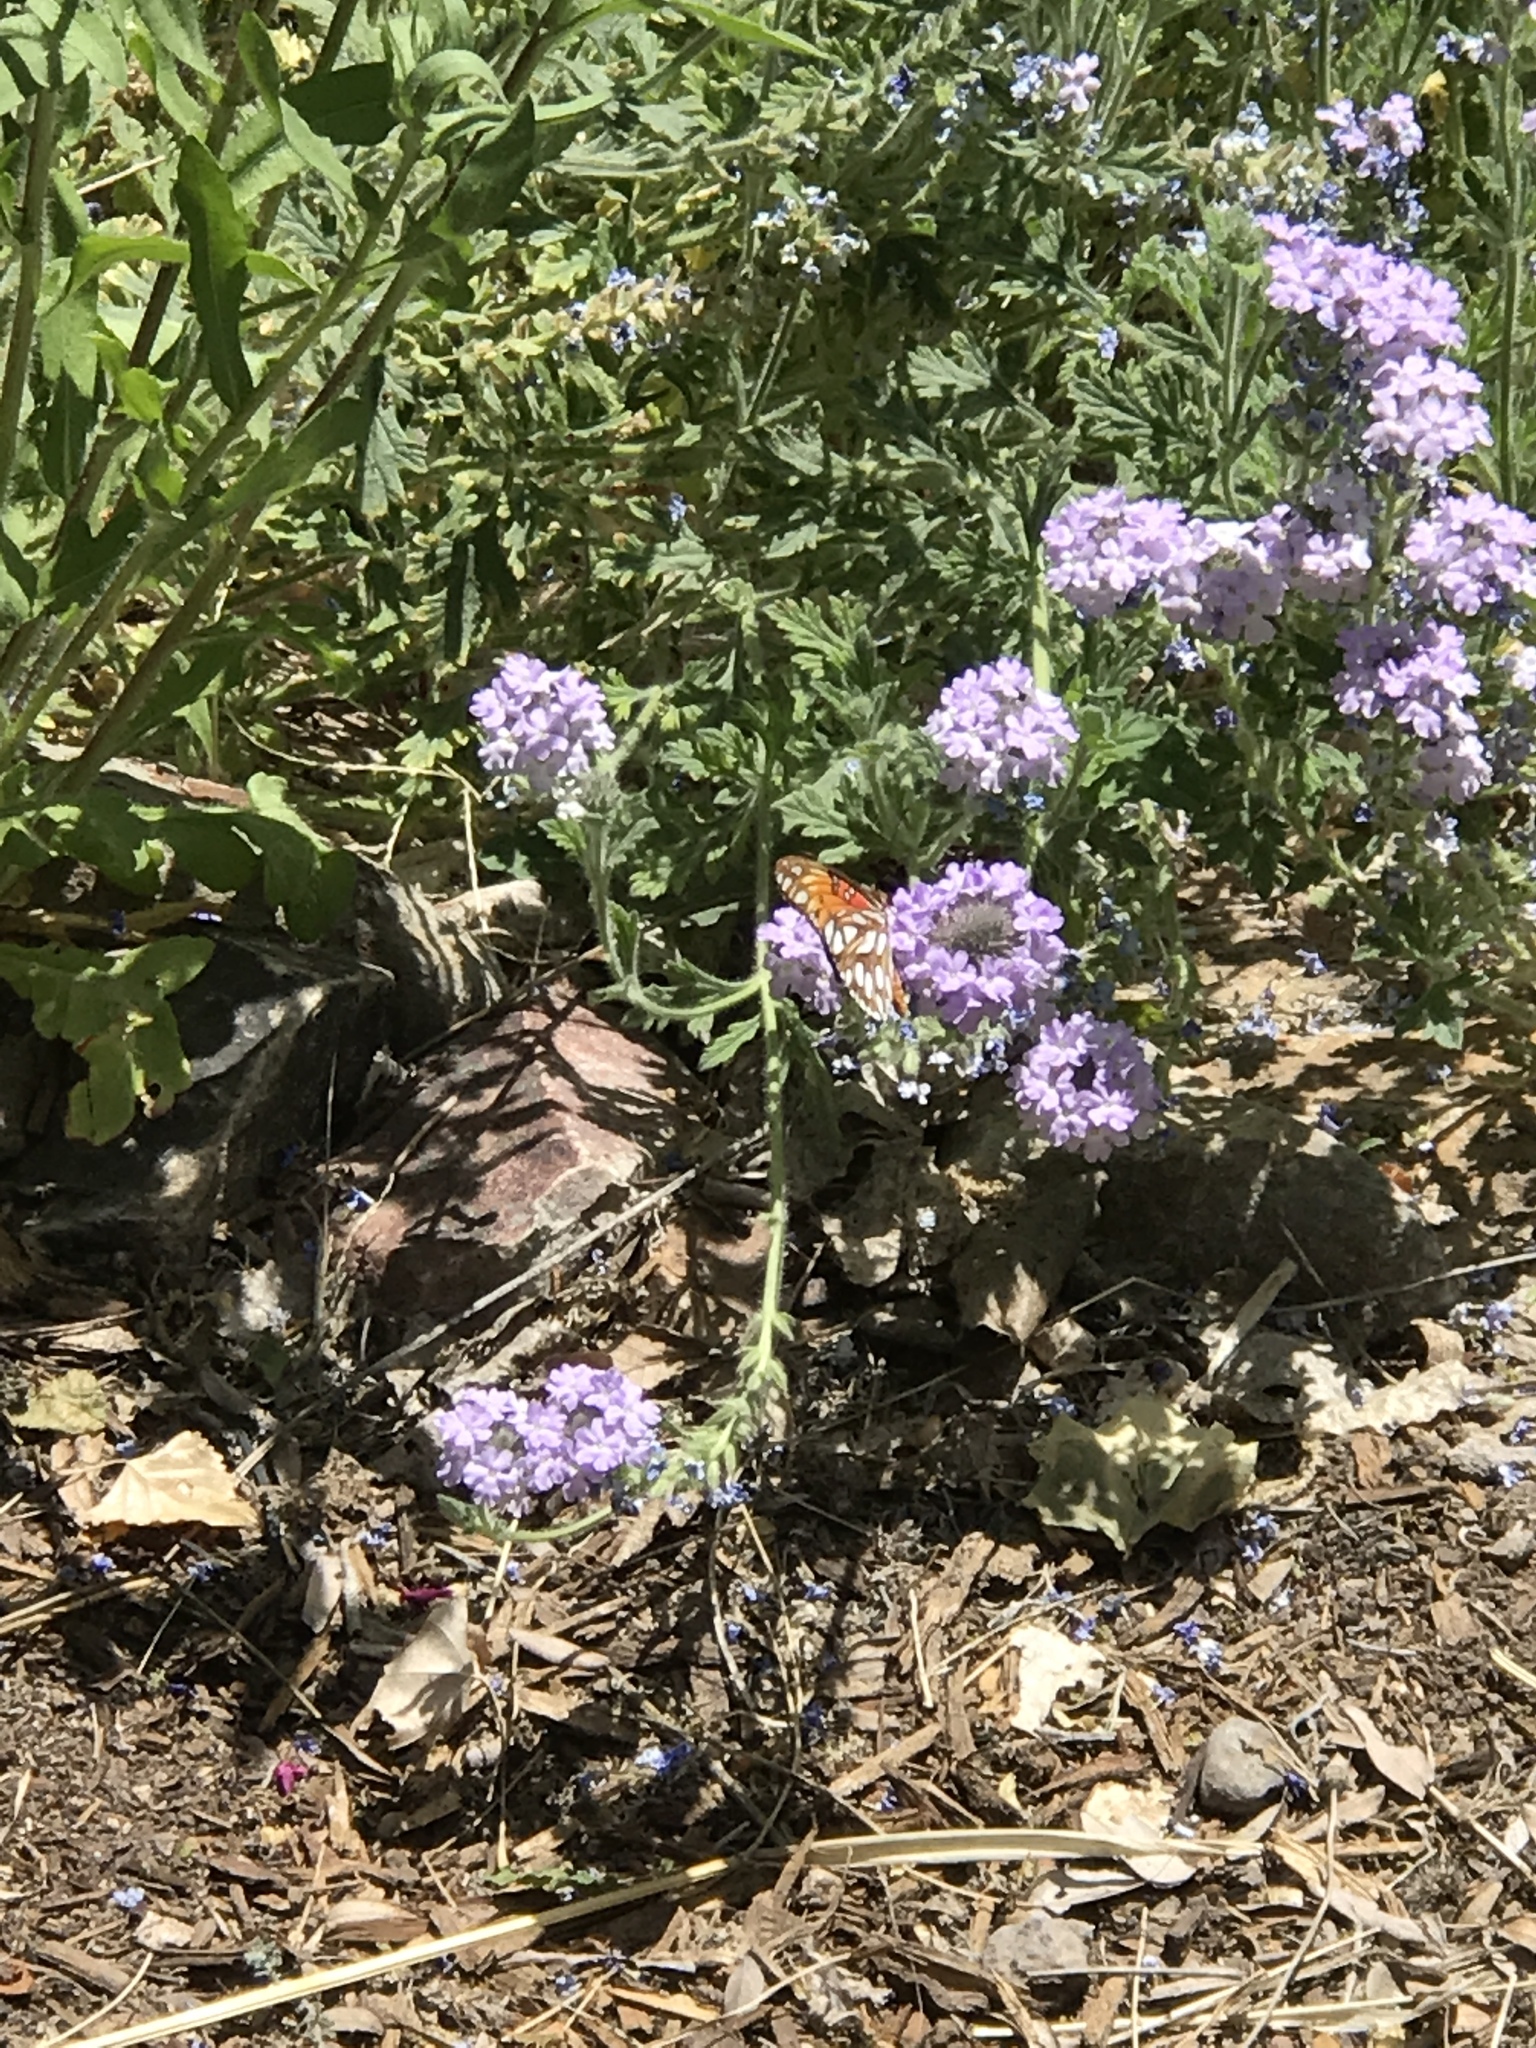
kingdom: Animalia
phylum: Arthropoda
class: Insecta
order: Lepidoptera
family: Nymphalidae
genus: Dione
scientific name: Dione vanillae
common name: Gulf fritillary
